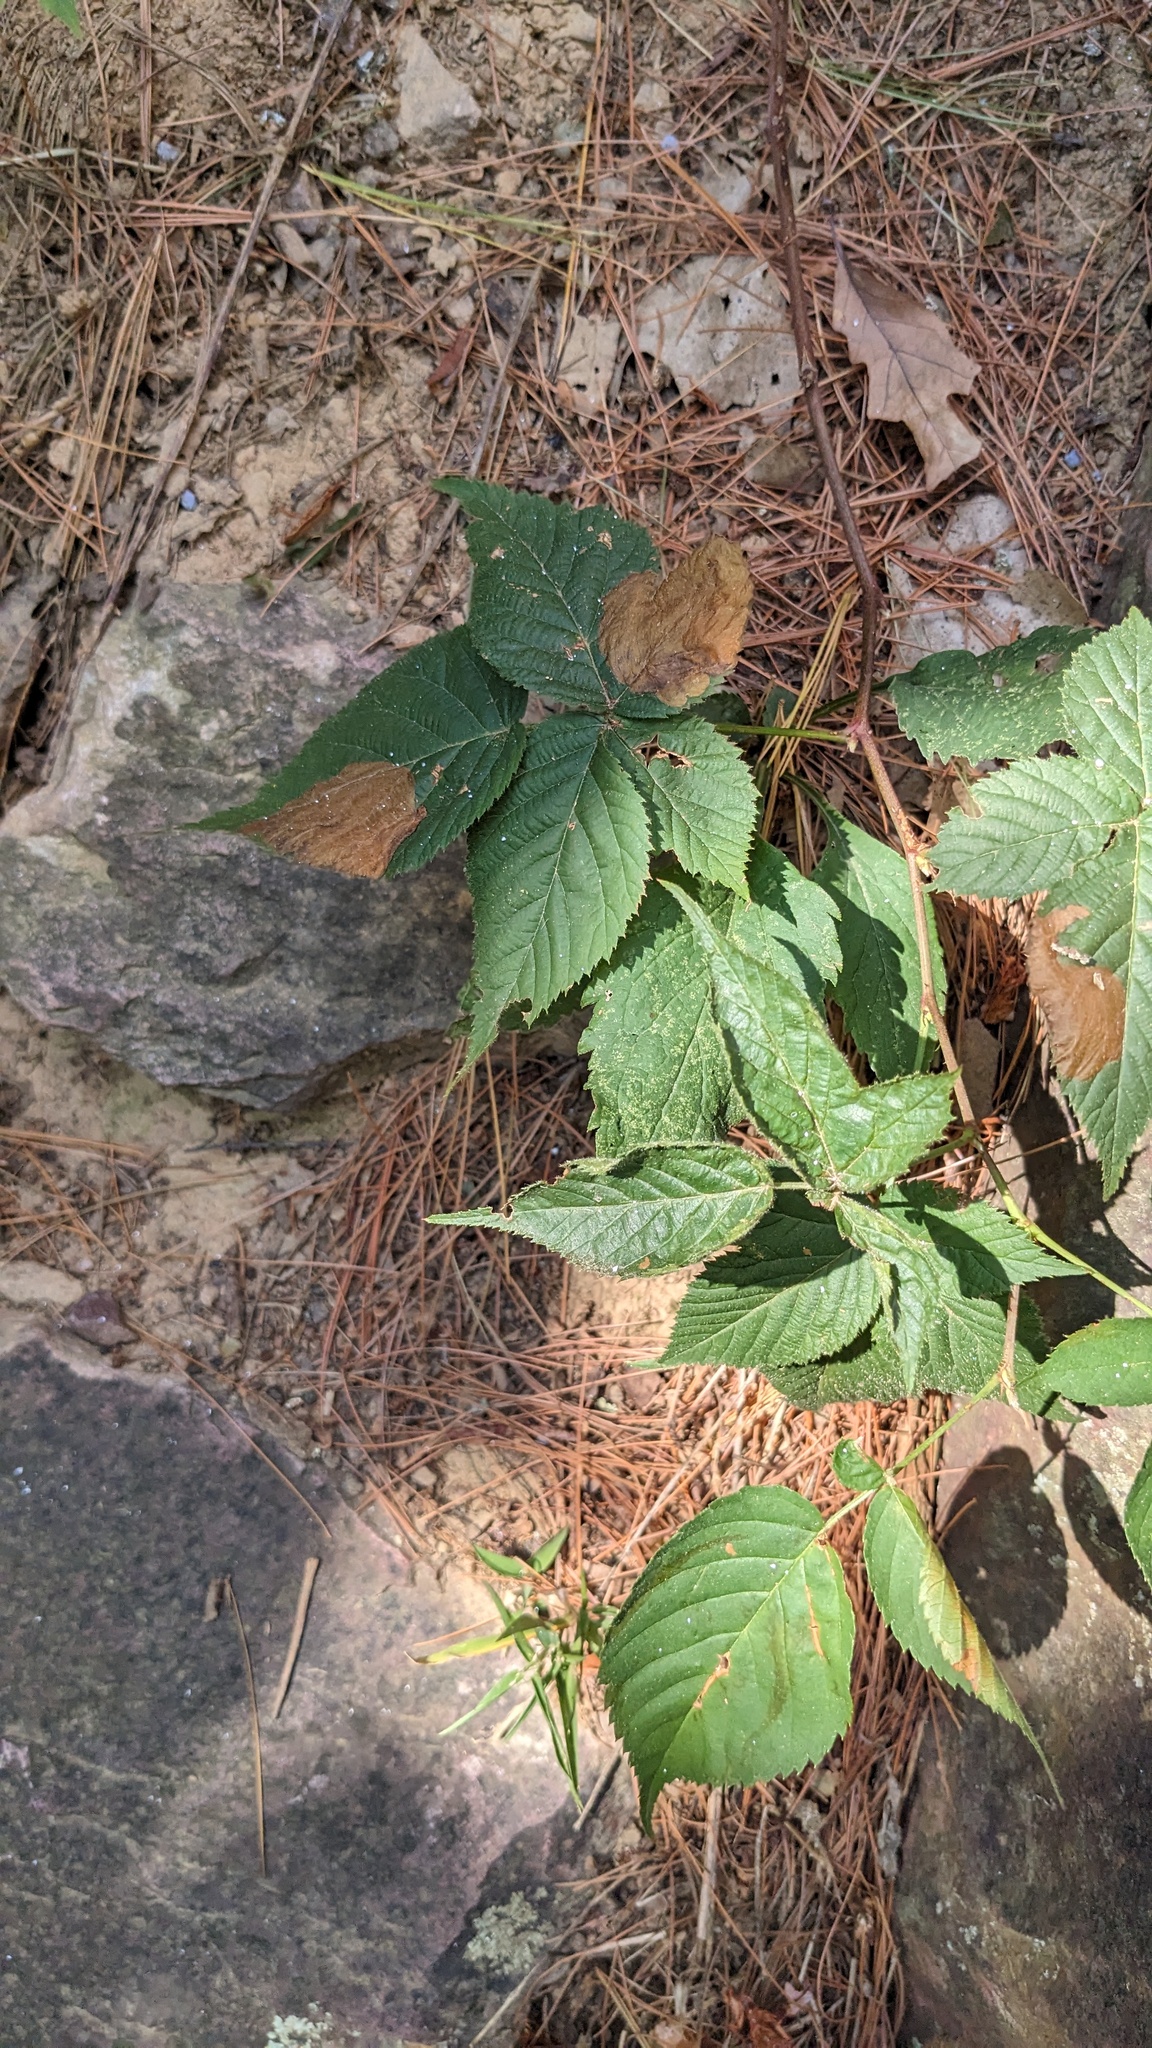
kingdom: Plantae
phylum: Tracheophyta
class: Magnoliopsida
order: Rosales
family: Rosaceae
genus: Rubus
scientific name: Rubus allegheniensis
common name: Allegheny blackberry
